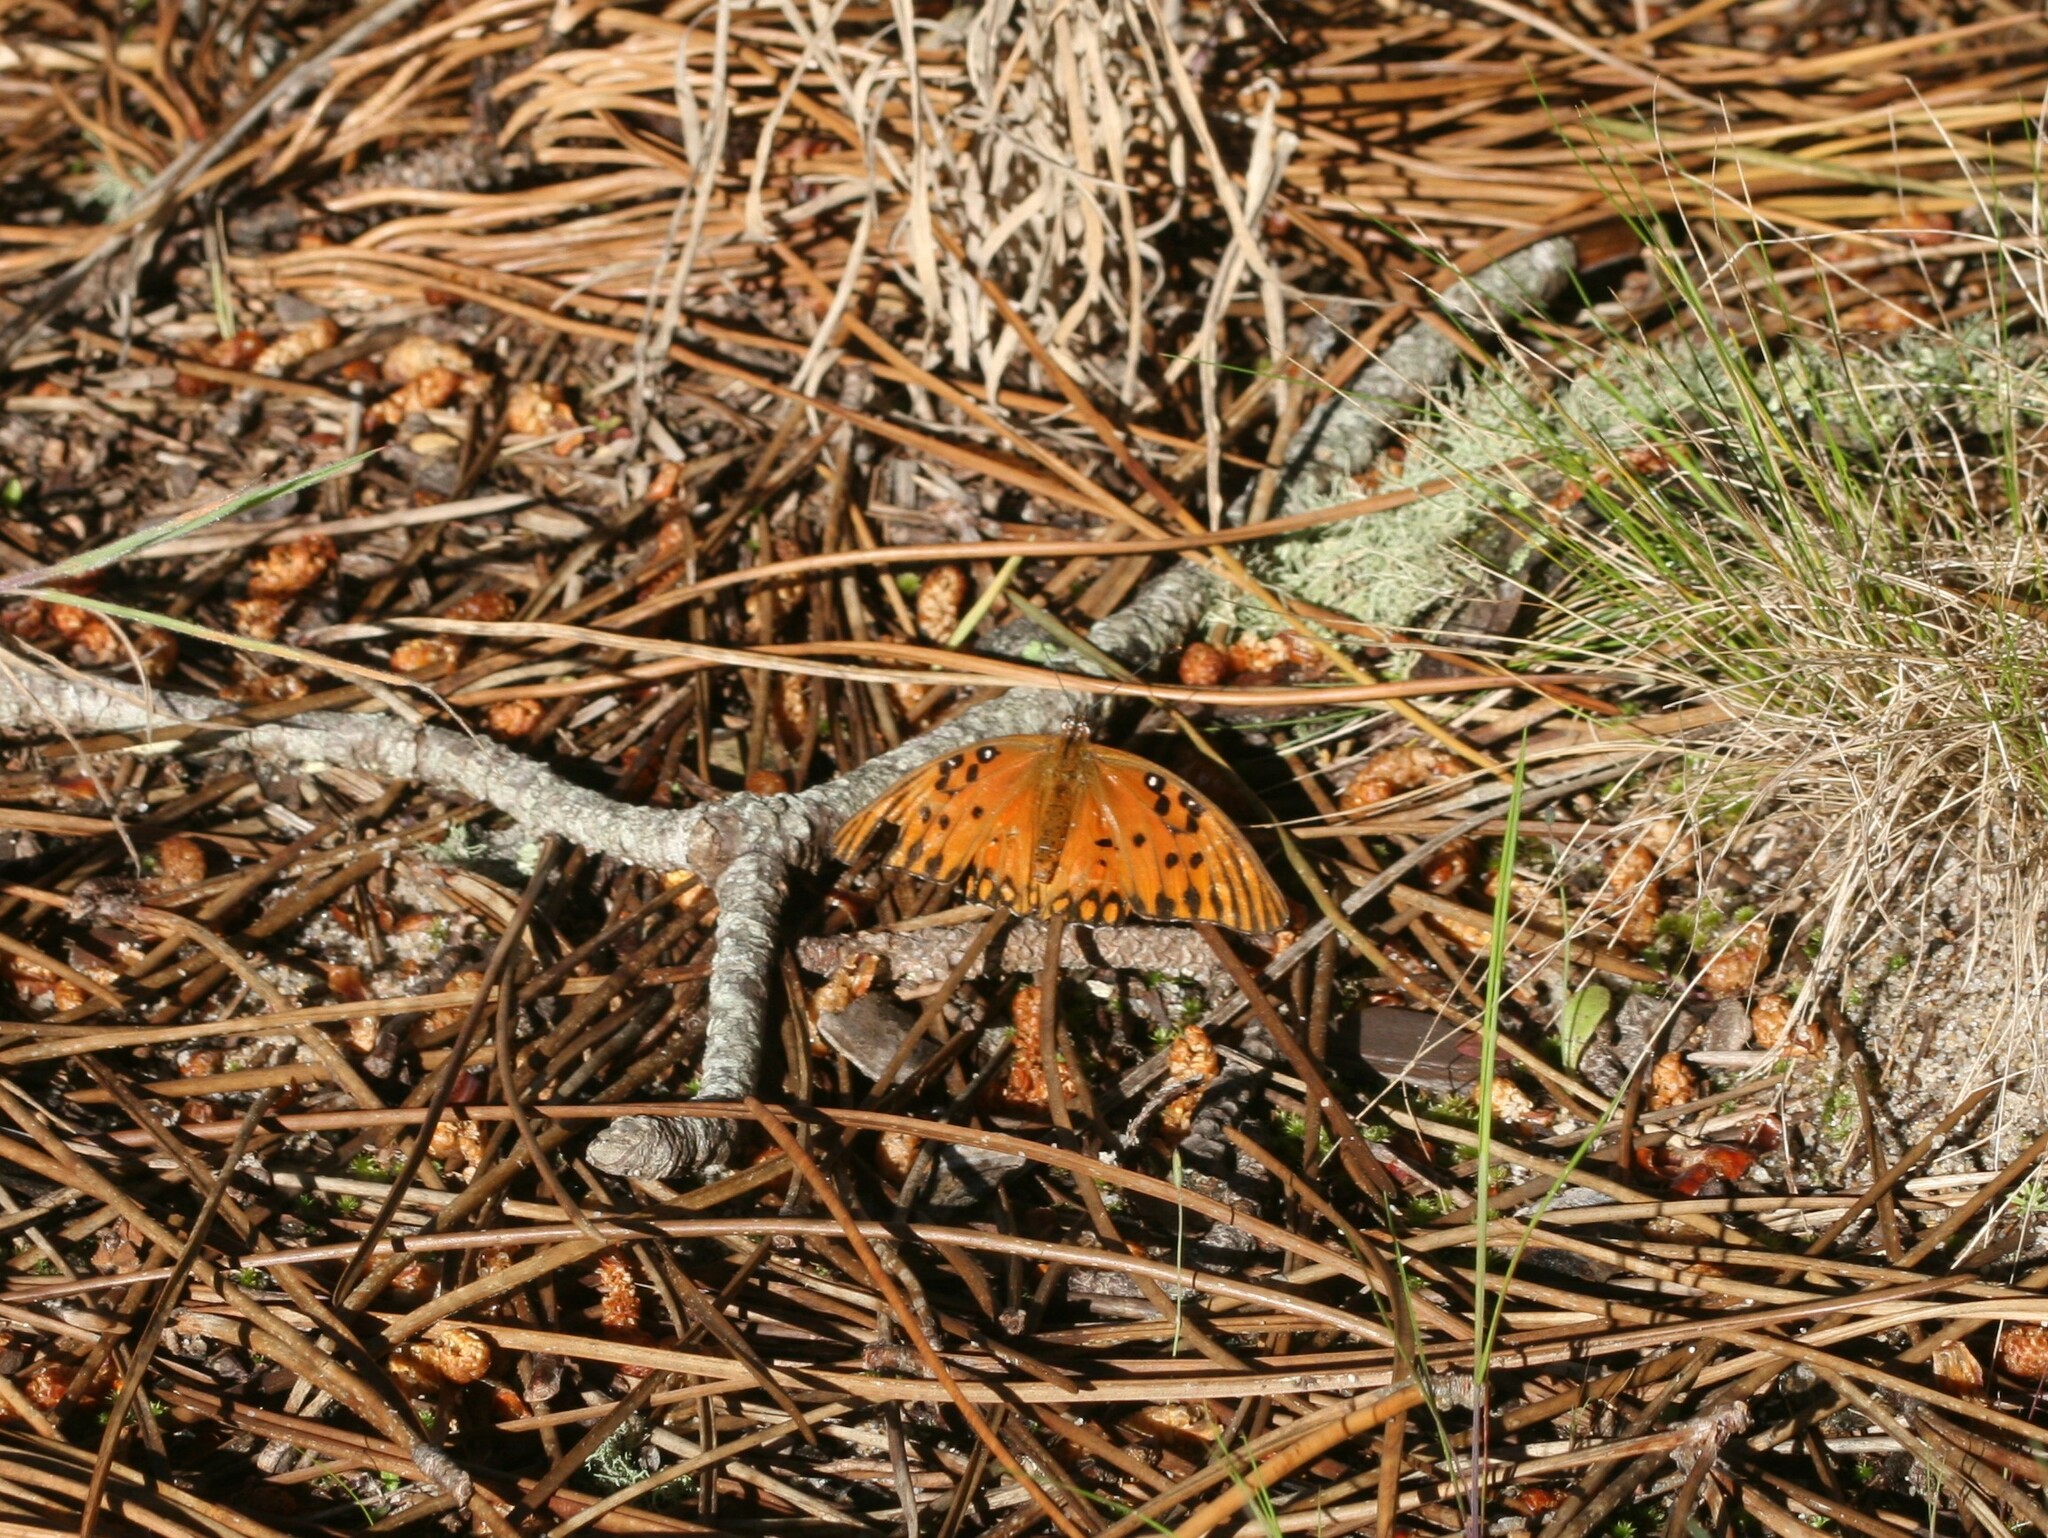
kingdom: Animalia
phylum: Arthropoda
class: Insecta
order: Lepidoptera
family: Nymphalidae
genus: Dione
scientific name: Dione vanillae
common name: Gulf fritillary
